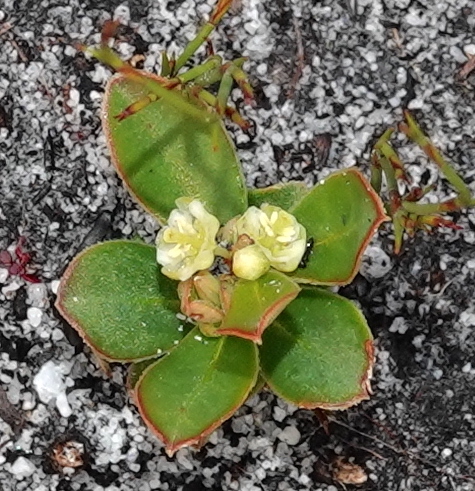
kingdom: Plantae
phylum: Tracheophyta
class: Magnoliopsida
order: Malpighiales
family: Peraceae
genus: Clutia
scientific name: Clutia alaternoides
